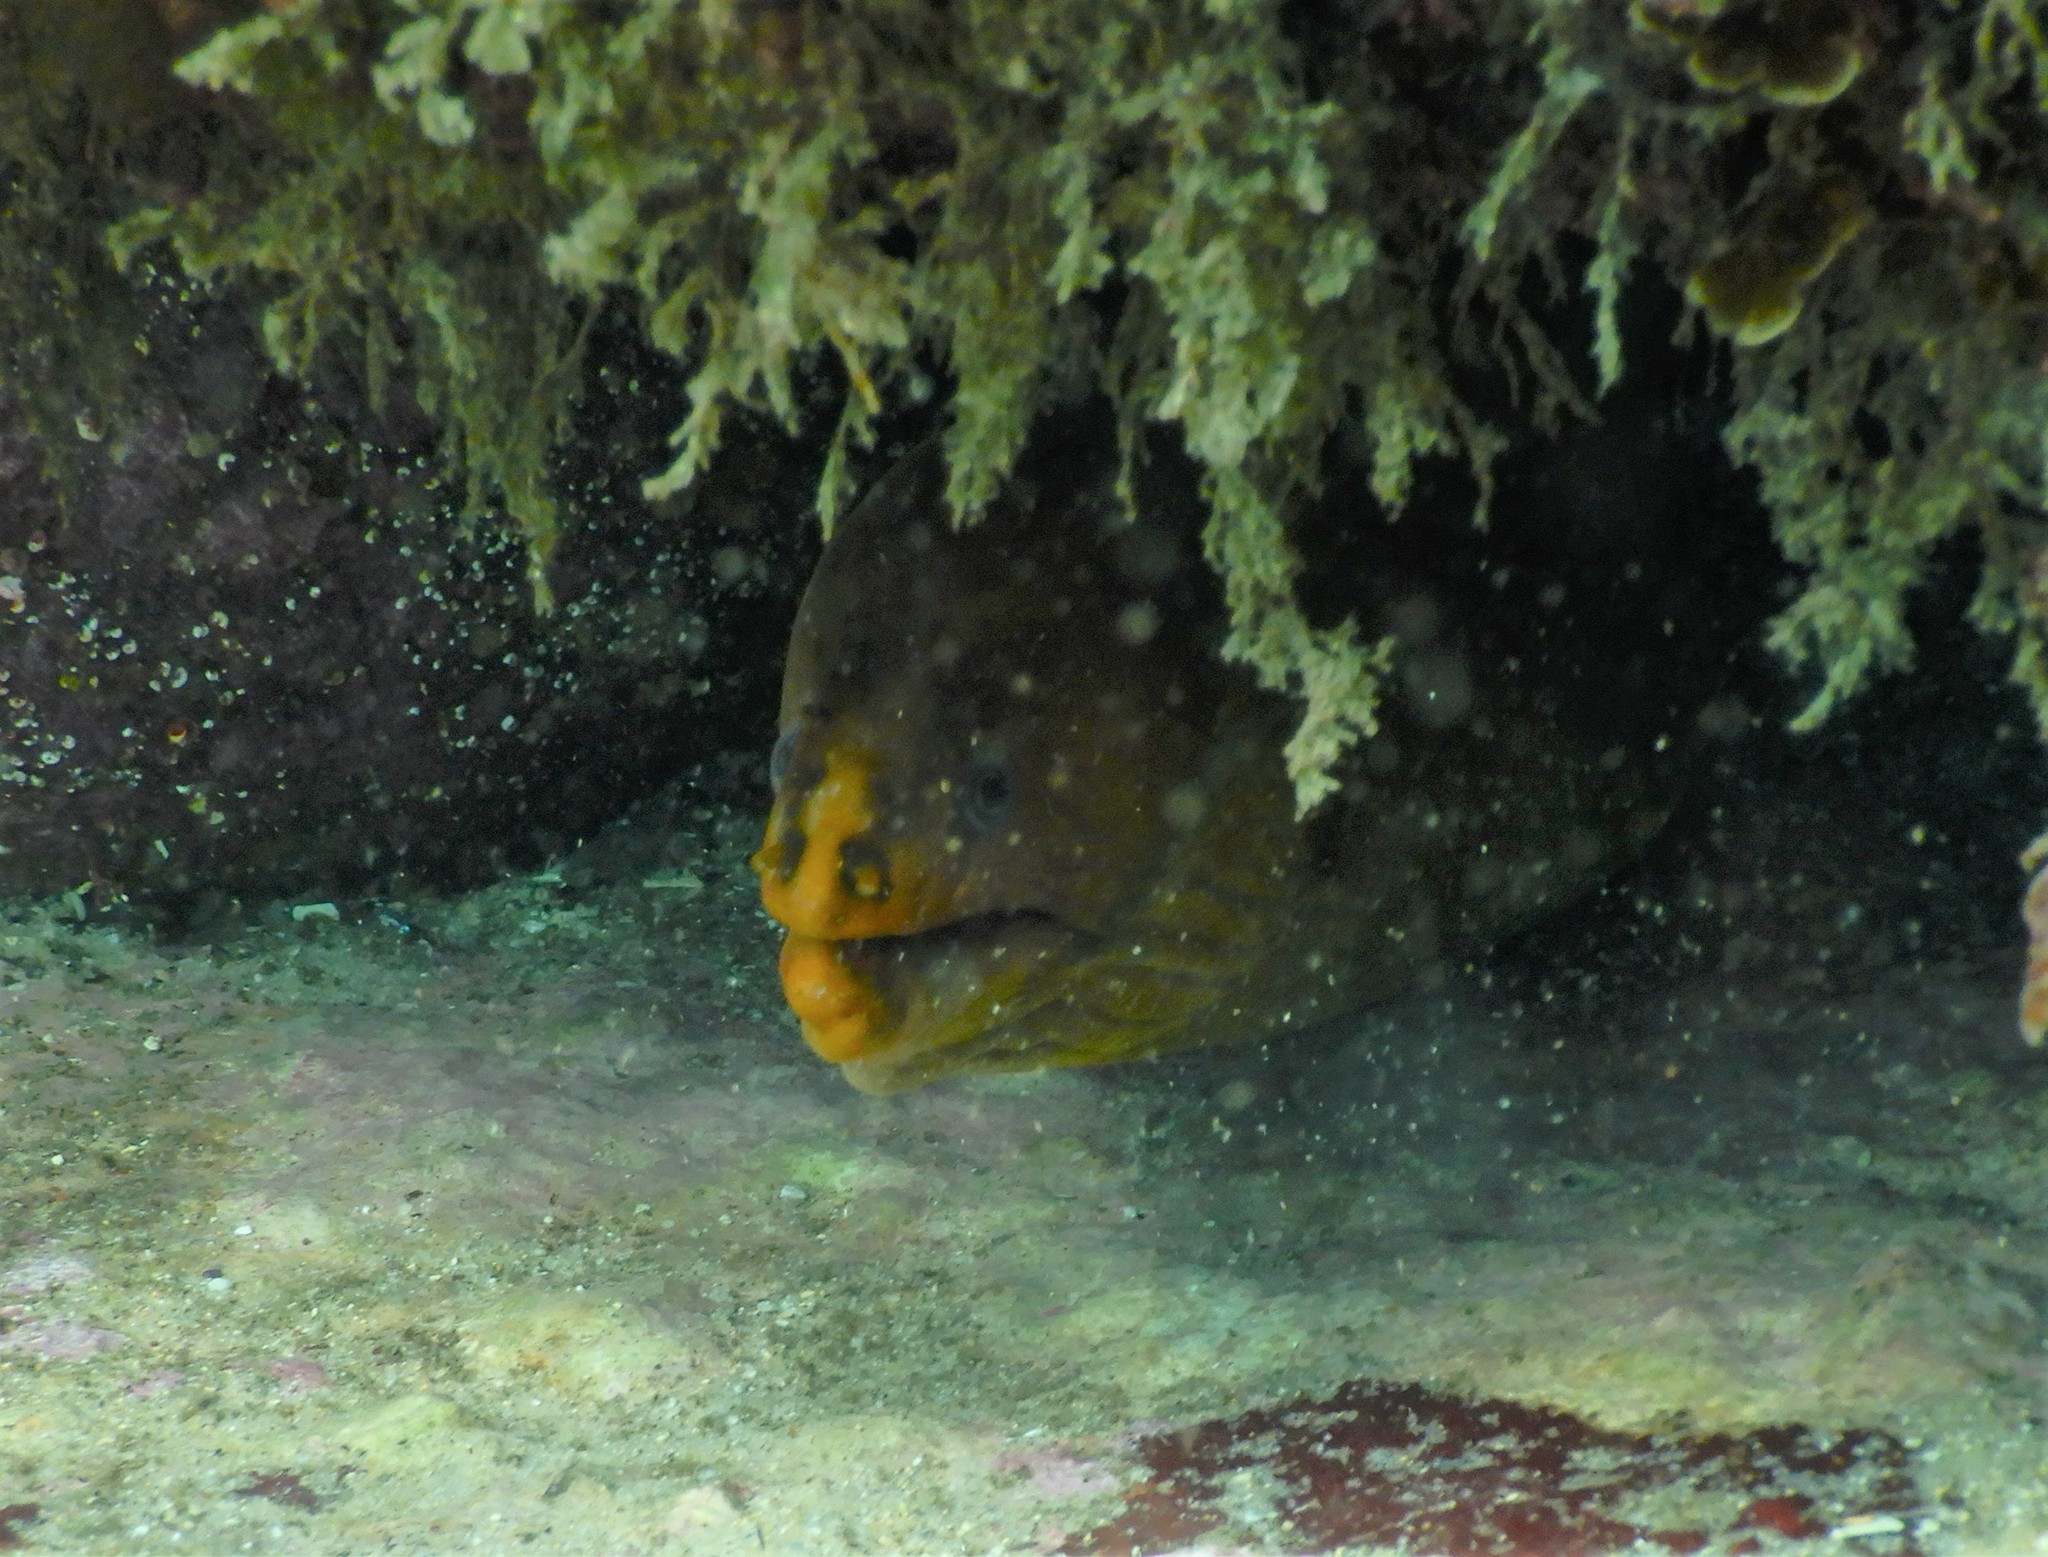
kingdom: Animalia
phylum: Chordata
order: Anguilliformes
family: Muraenidae
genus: Gymnothorax
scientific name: Gymnothorax prasinus
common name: Yellow moray
